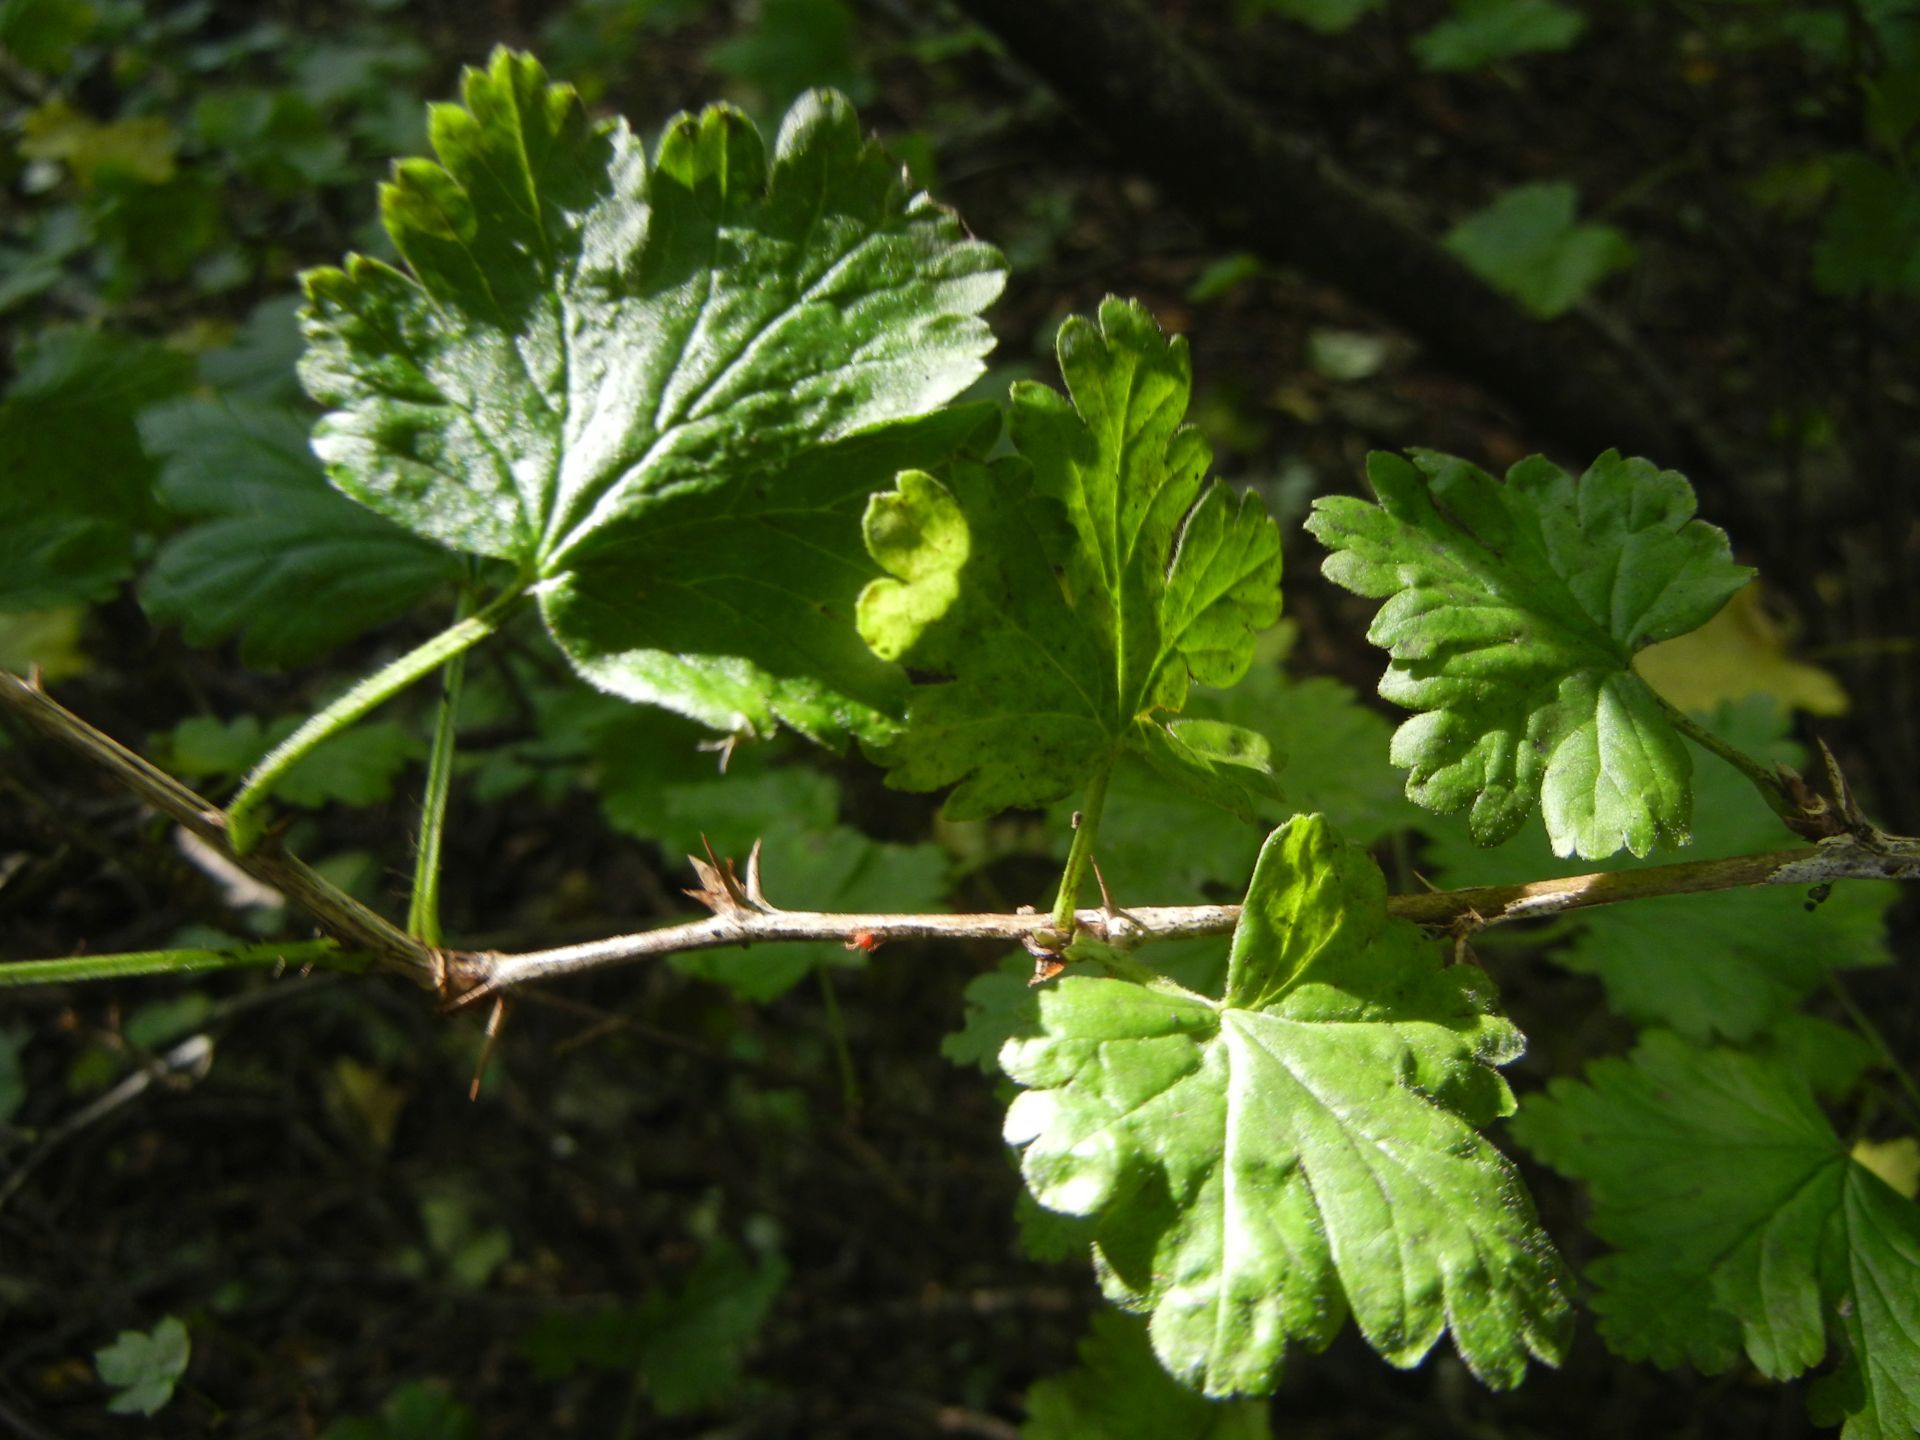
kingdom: Plantae
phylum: Tracheophyta
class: Magnoliopsida
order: Saxifragales
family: Grossulariaceae
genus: Ribes
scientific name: Ribes uva-crispa
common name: Gooseberry
